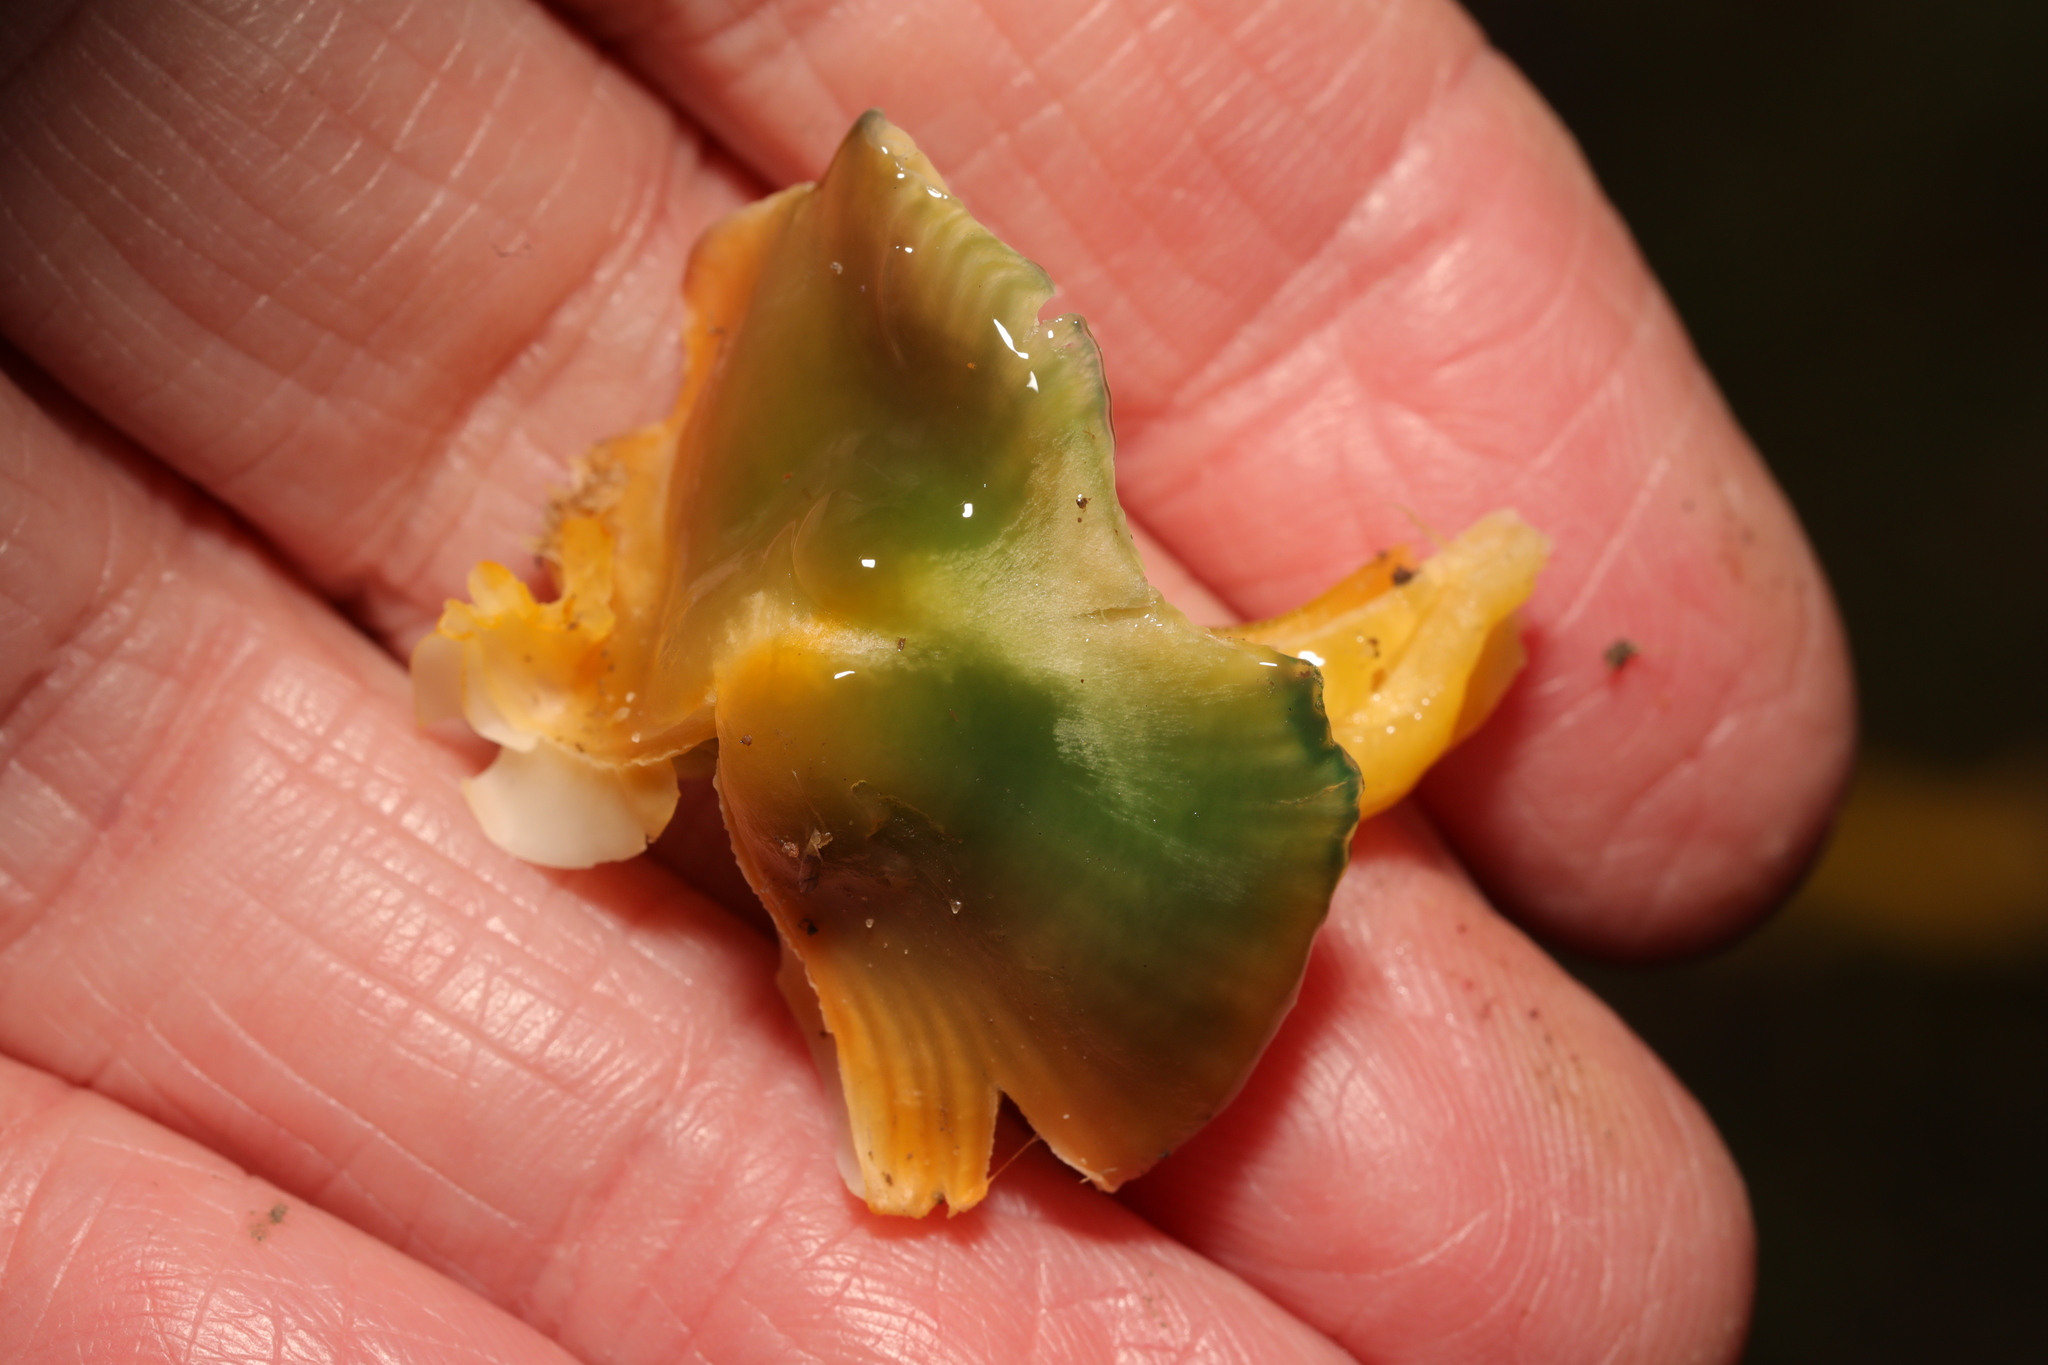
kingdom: Fungi
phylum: Basidiomycota
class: Agaricomycetes
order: Agaricales
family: Hygrophoraceae
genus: Gliophorus
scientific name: Gliophorus psittacinus
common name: Parrot wax-cap
